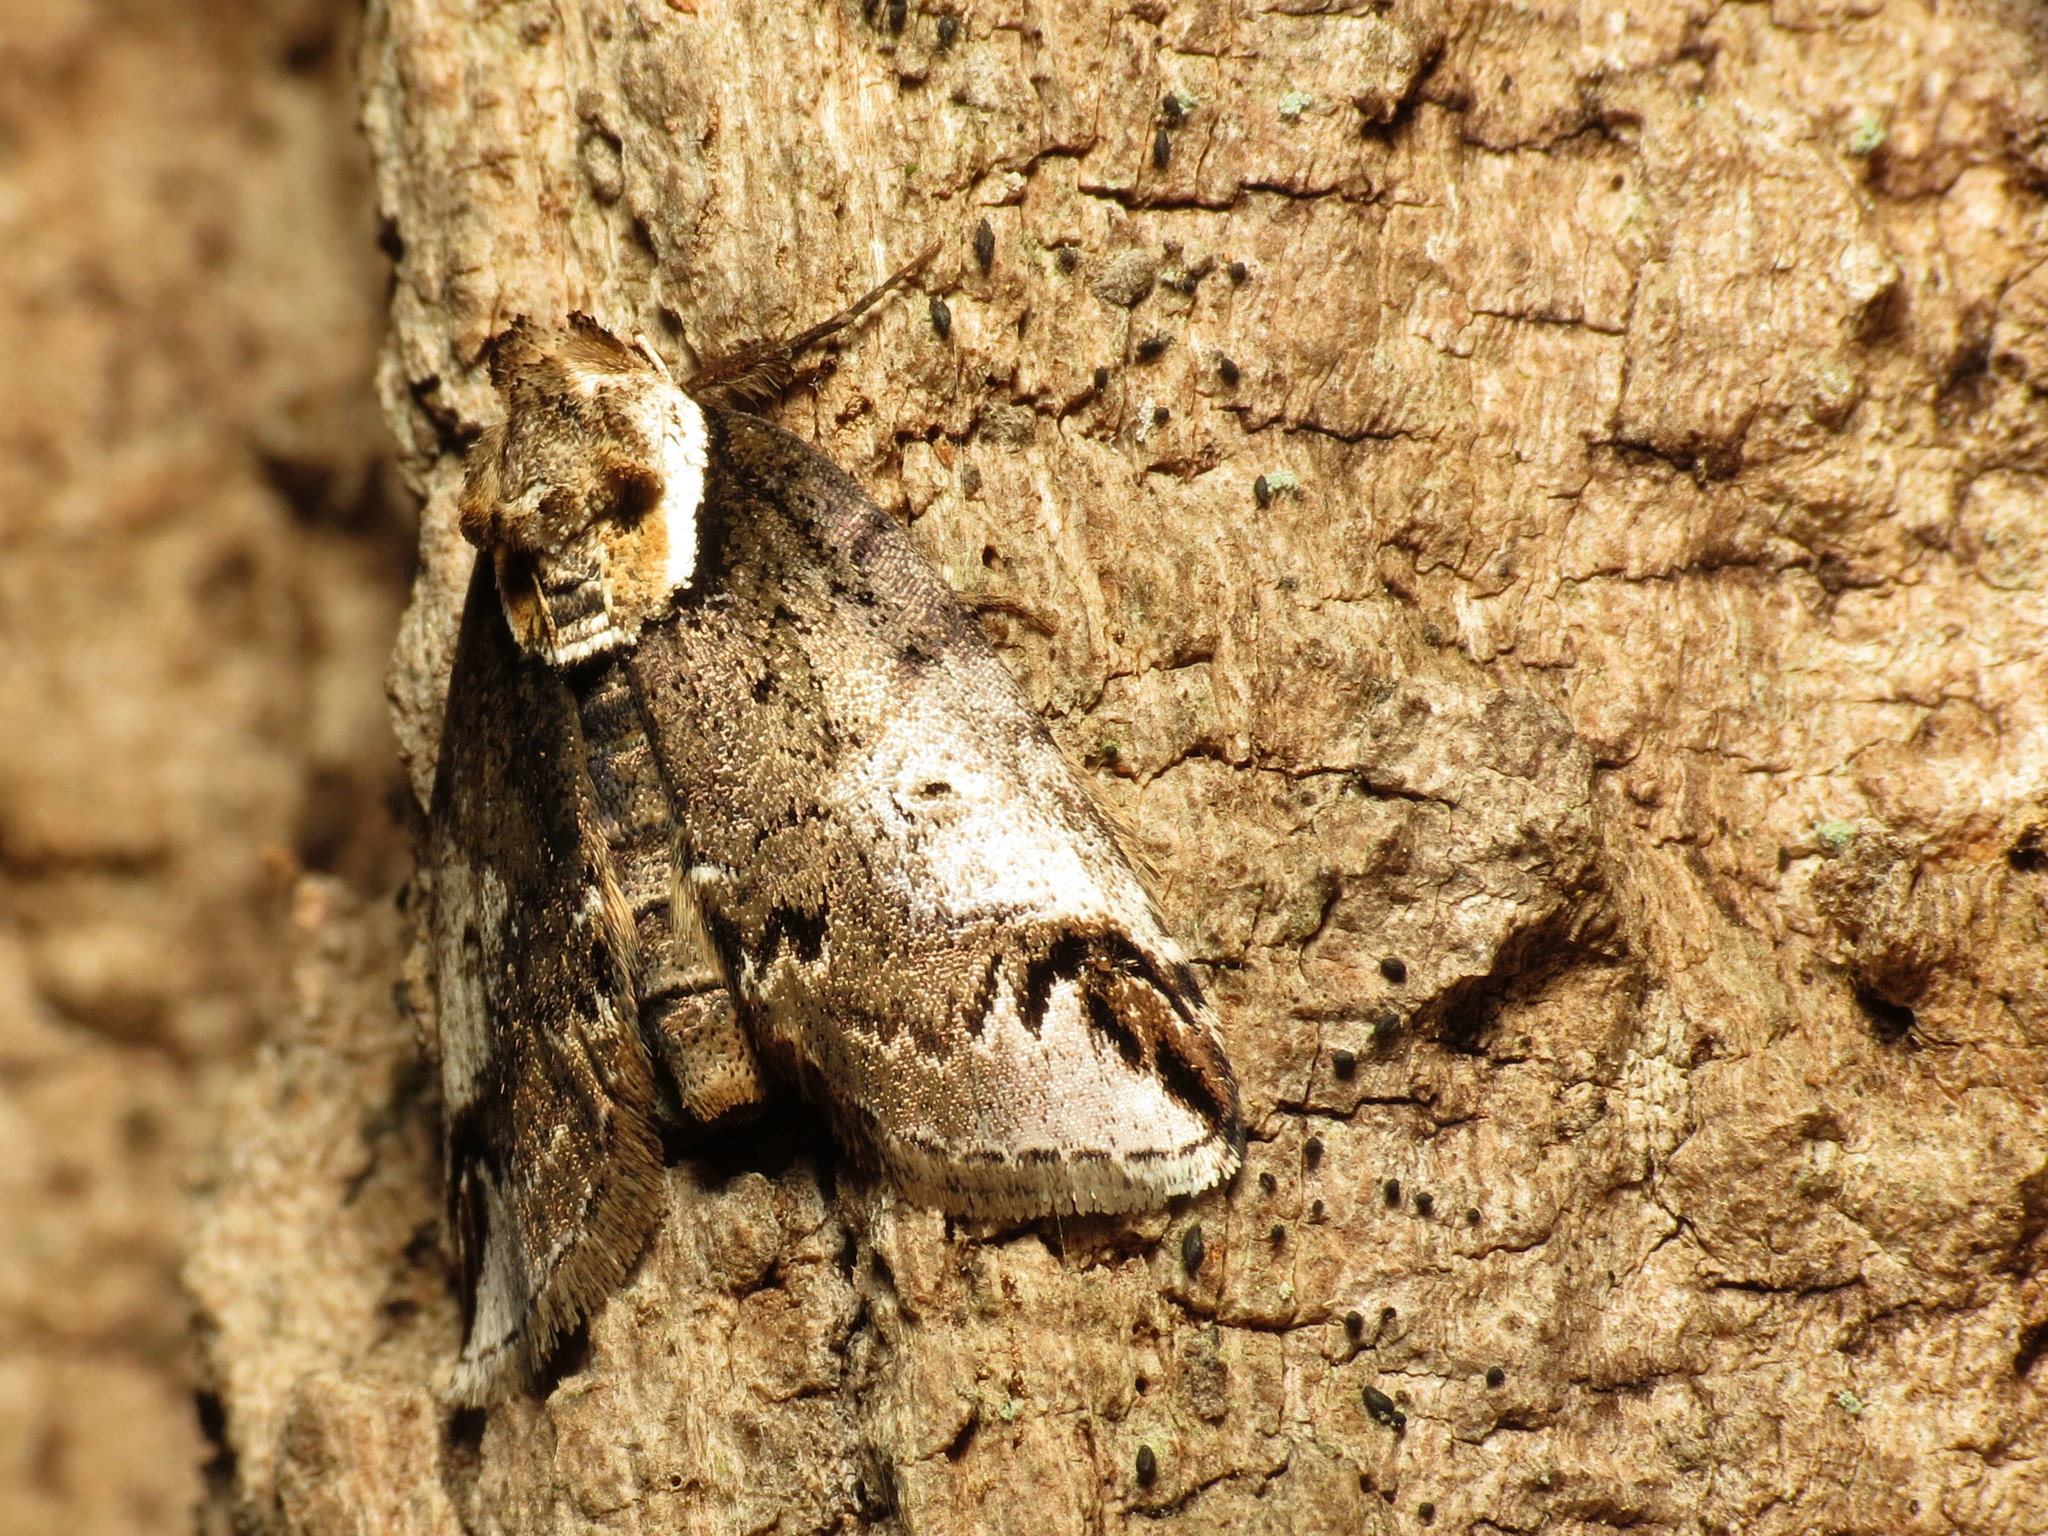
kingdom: Animalia
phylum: Arthropoda
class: Insecta
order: Lepidoptera
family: Nolidae
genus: Baileya
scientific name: Baileya ophthalmica
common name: Eyed baileya moth
